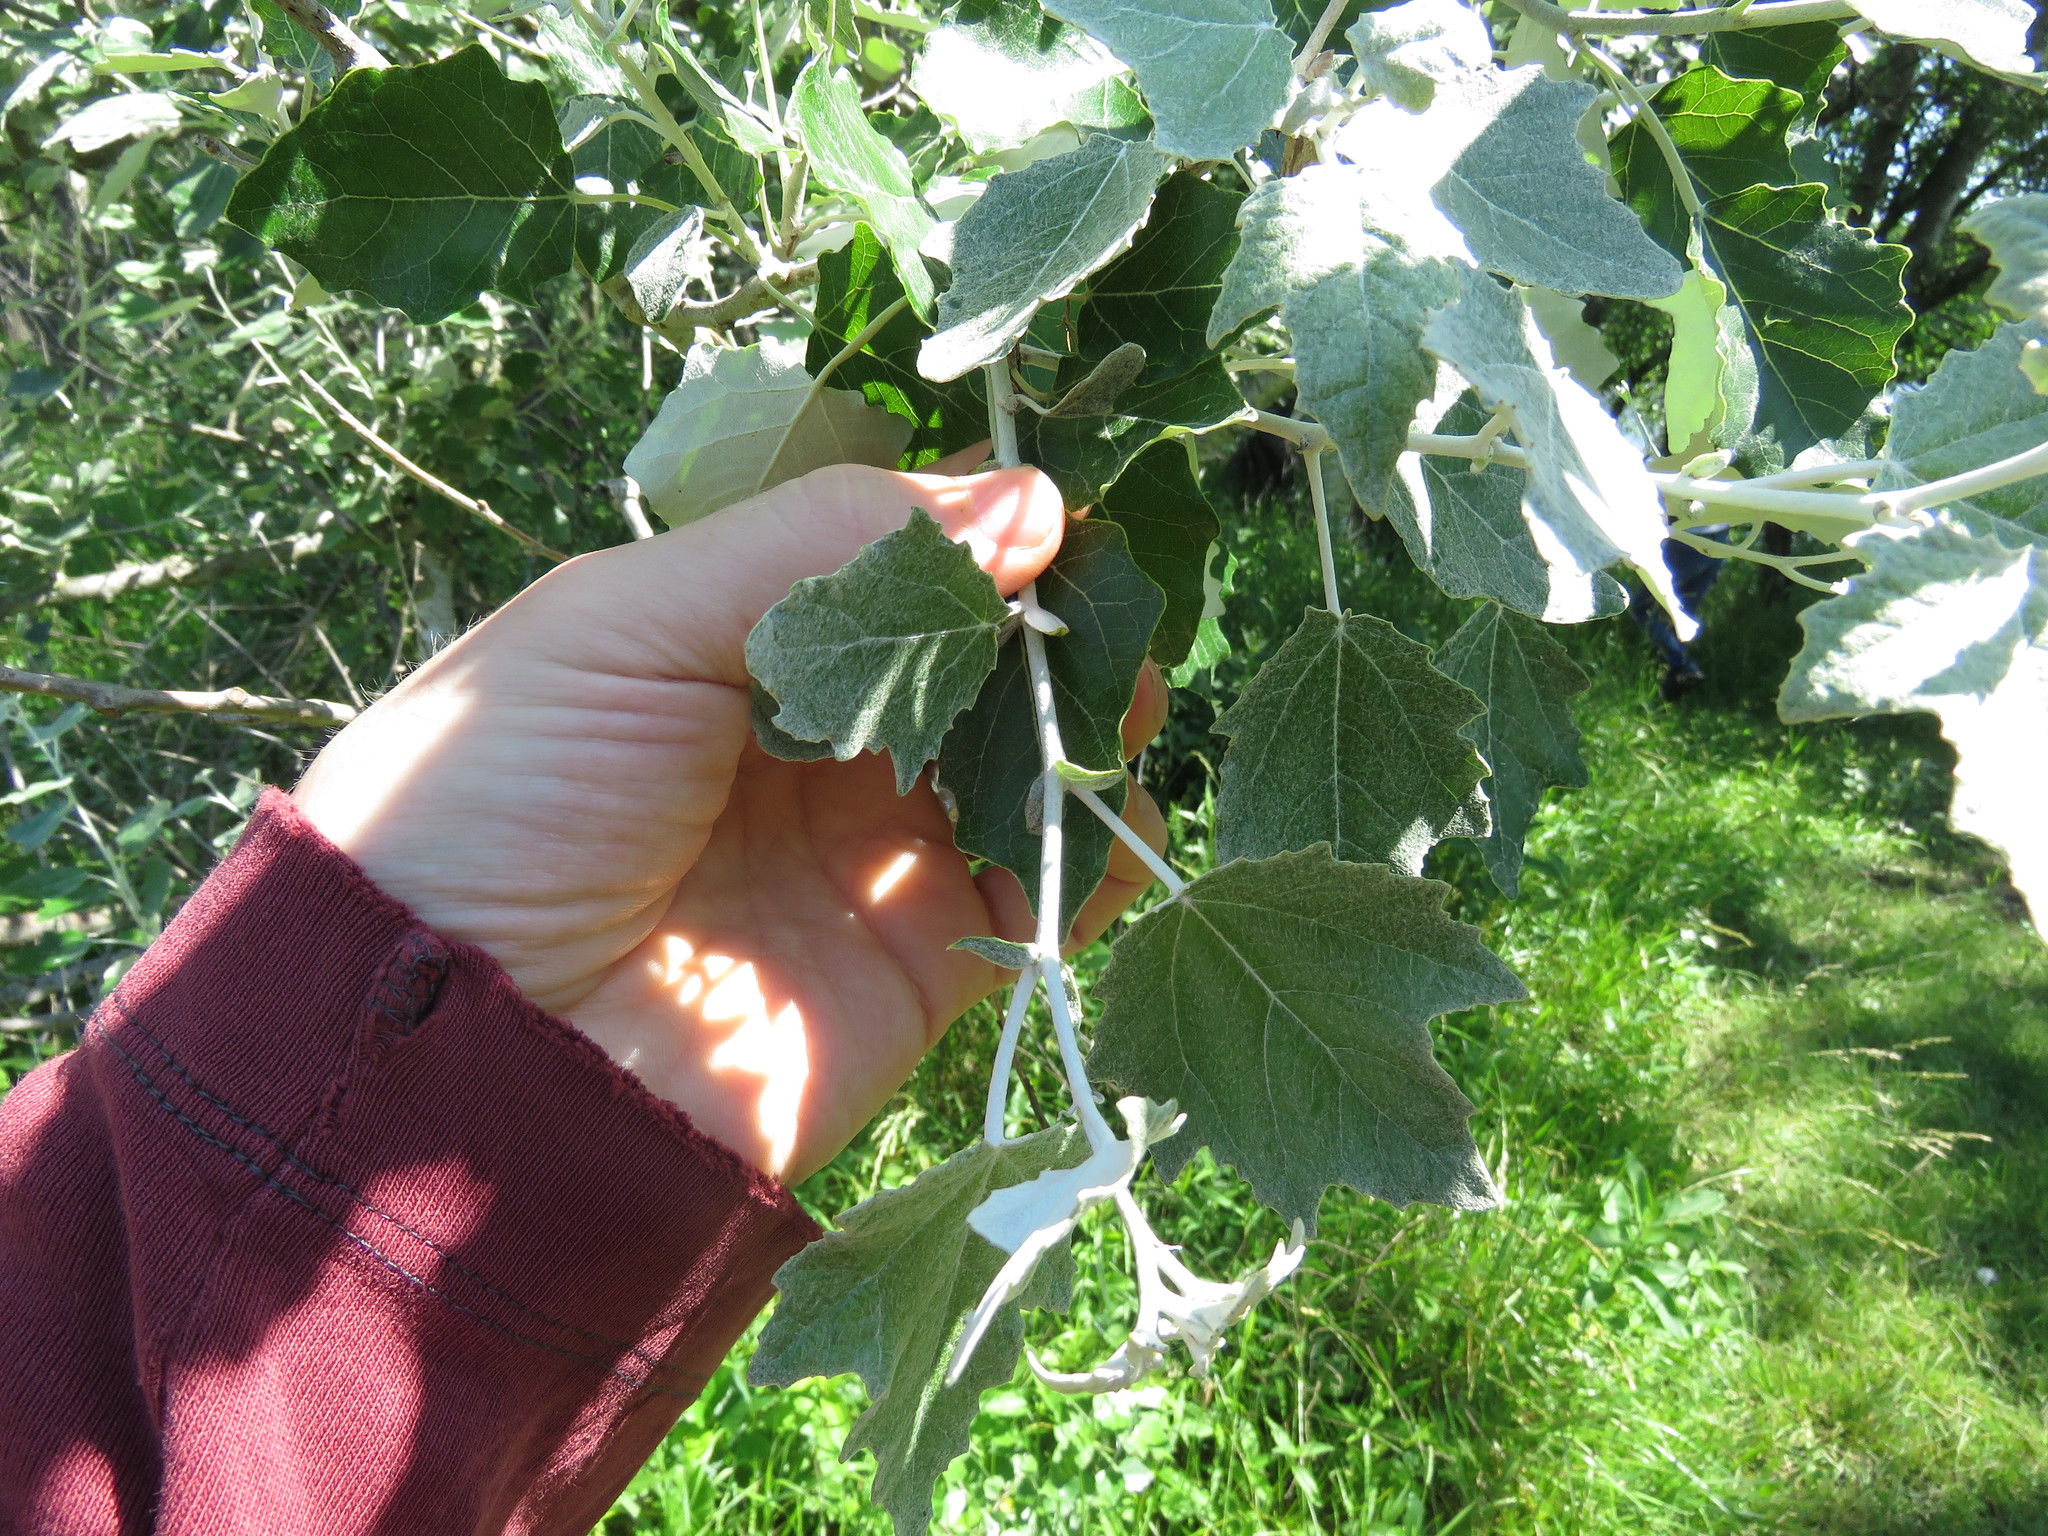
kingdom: Plantae
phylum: Tracheophyta
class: Magnoliopsida
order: Malpighiales
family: Salicaceae
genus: Populus
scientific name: Populus alba
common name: White poplar
